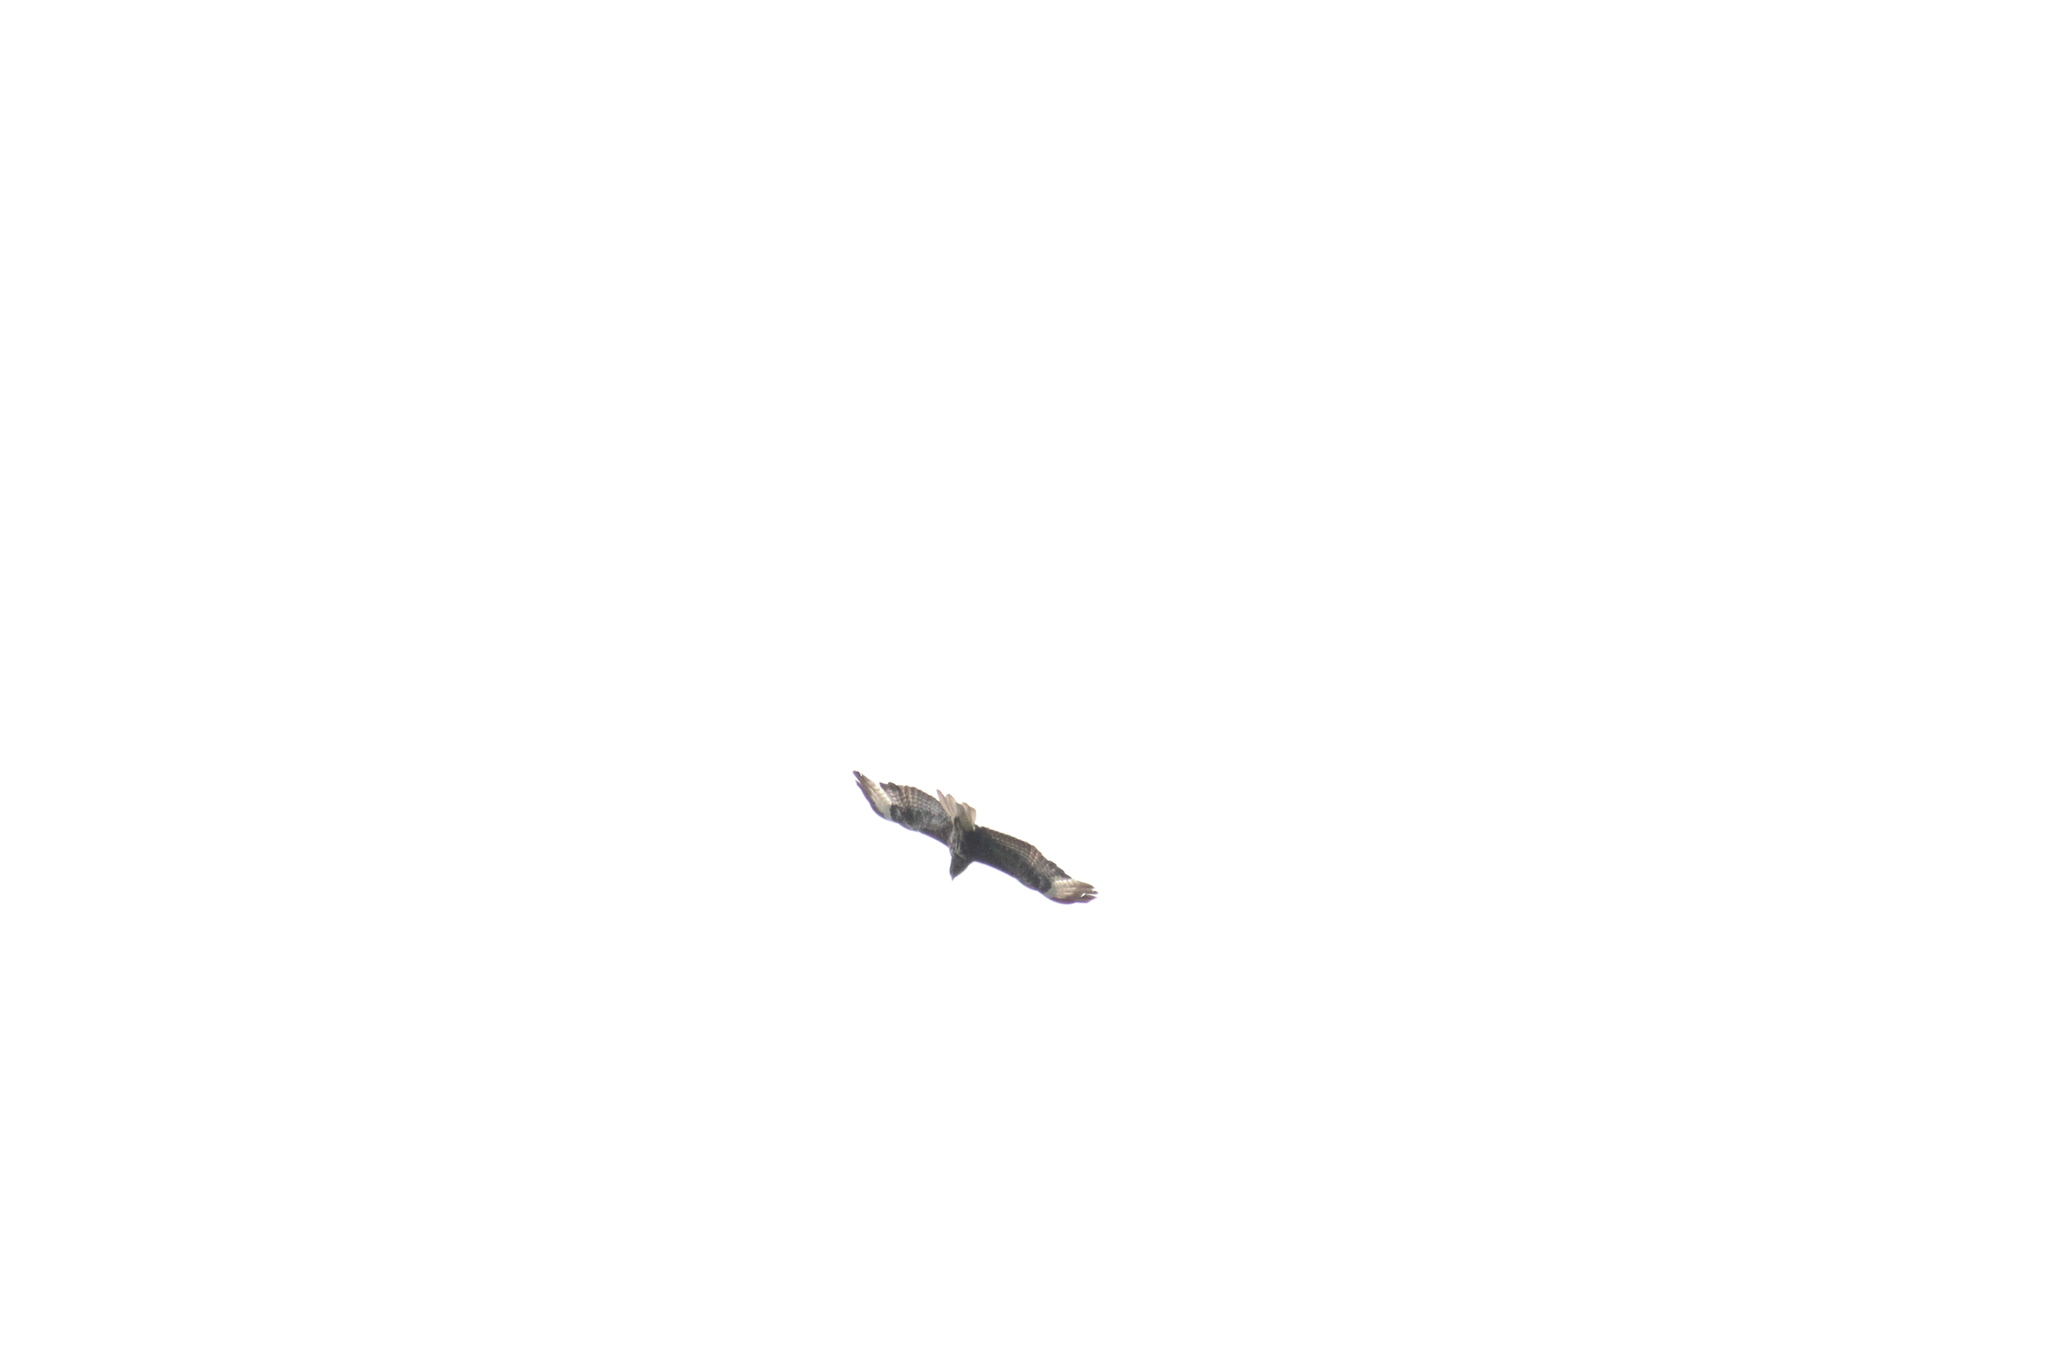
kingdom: Animalia
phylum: Chordata
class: Aves
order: Accipitriformes
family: Accipitridae
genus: Buteo
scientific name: Buteo buteo
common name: Common buzzard
